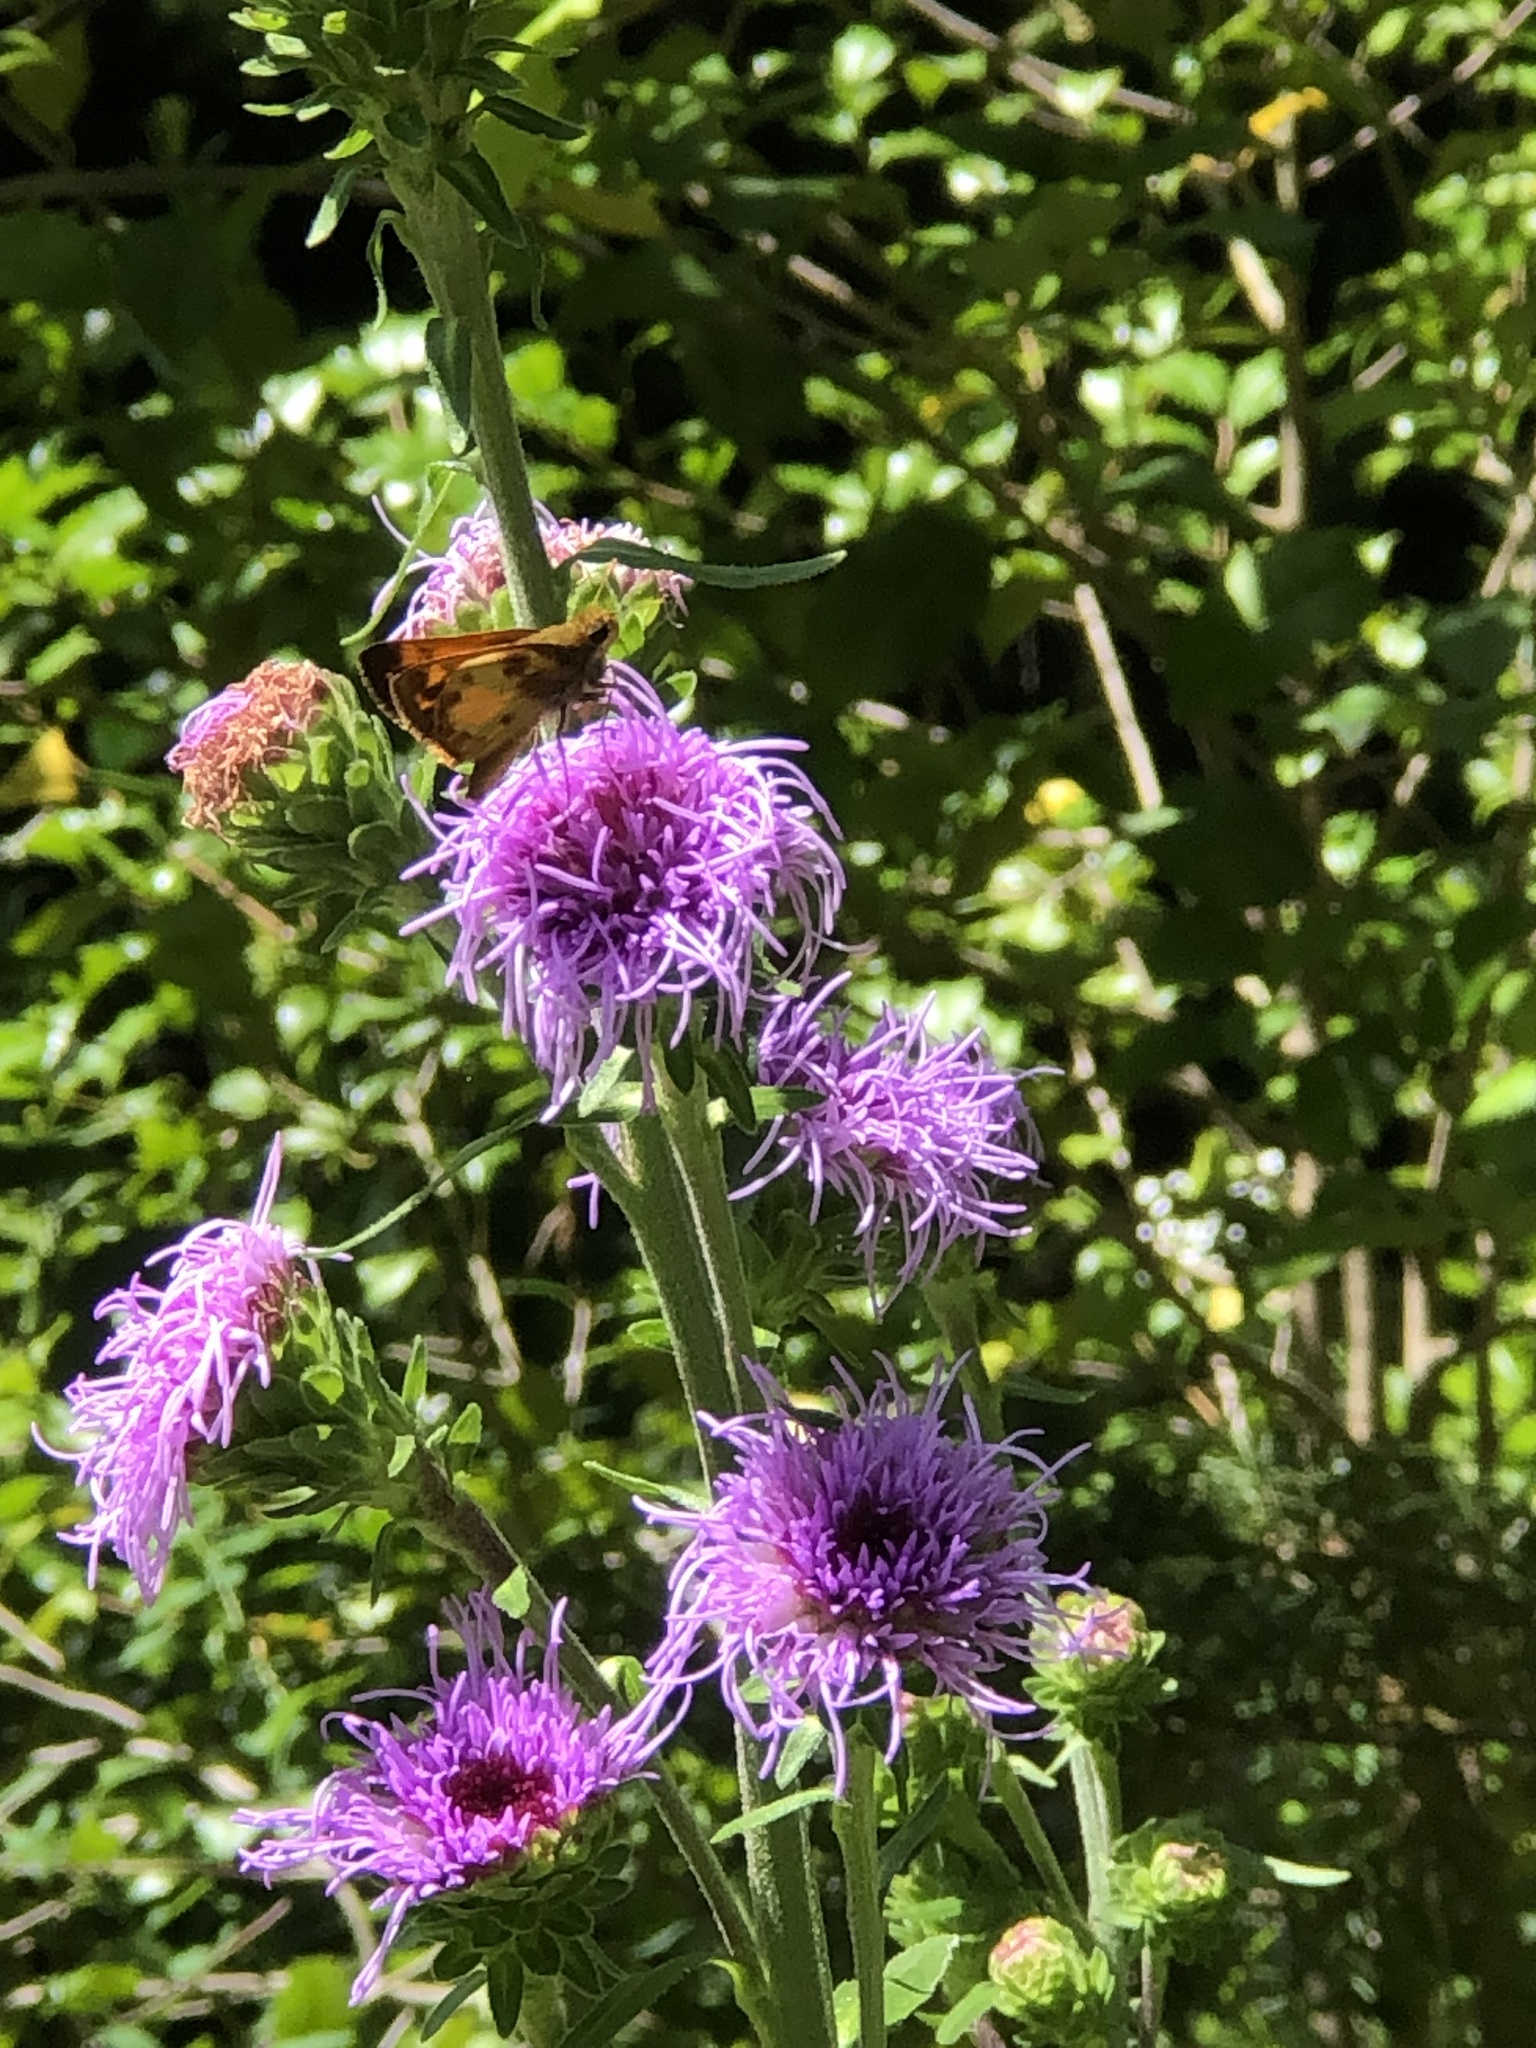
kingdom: Animalia
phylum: Arthropoda
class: Insecta
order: Lepidoptera
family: Hesperiidae
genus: Lon
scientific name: Lon zabulon
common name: Zabulon skipper
